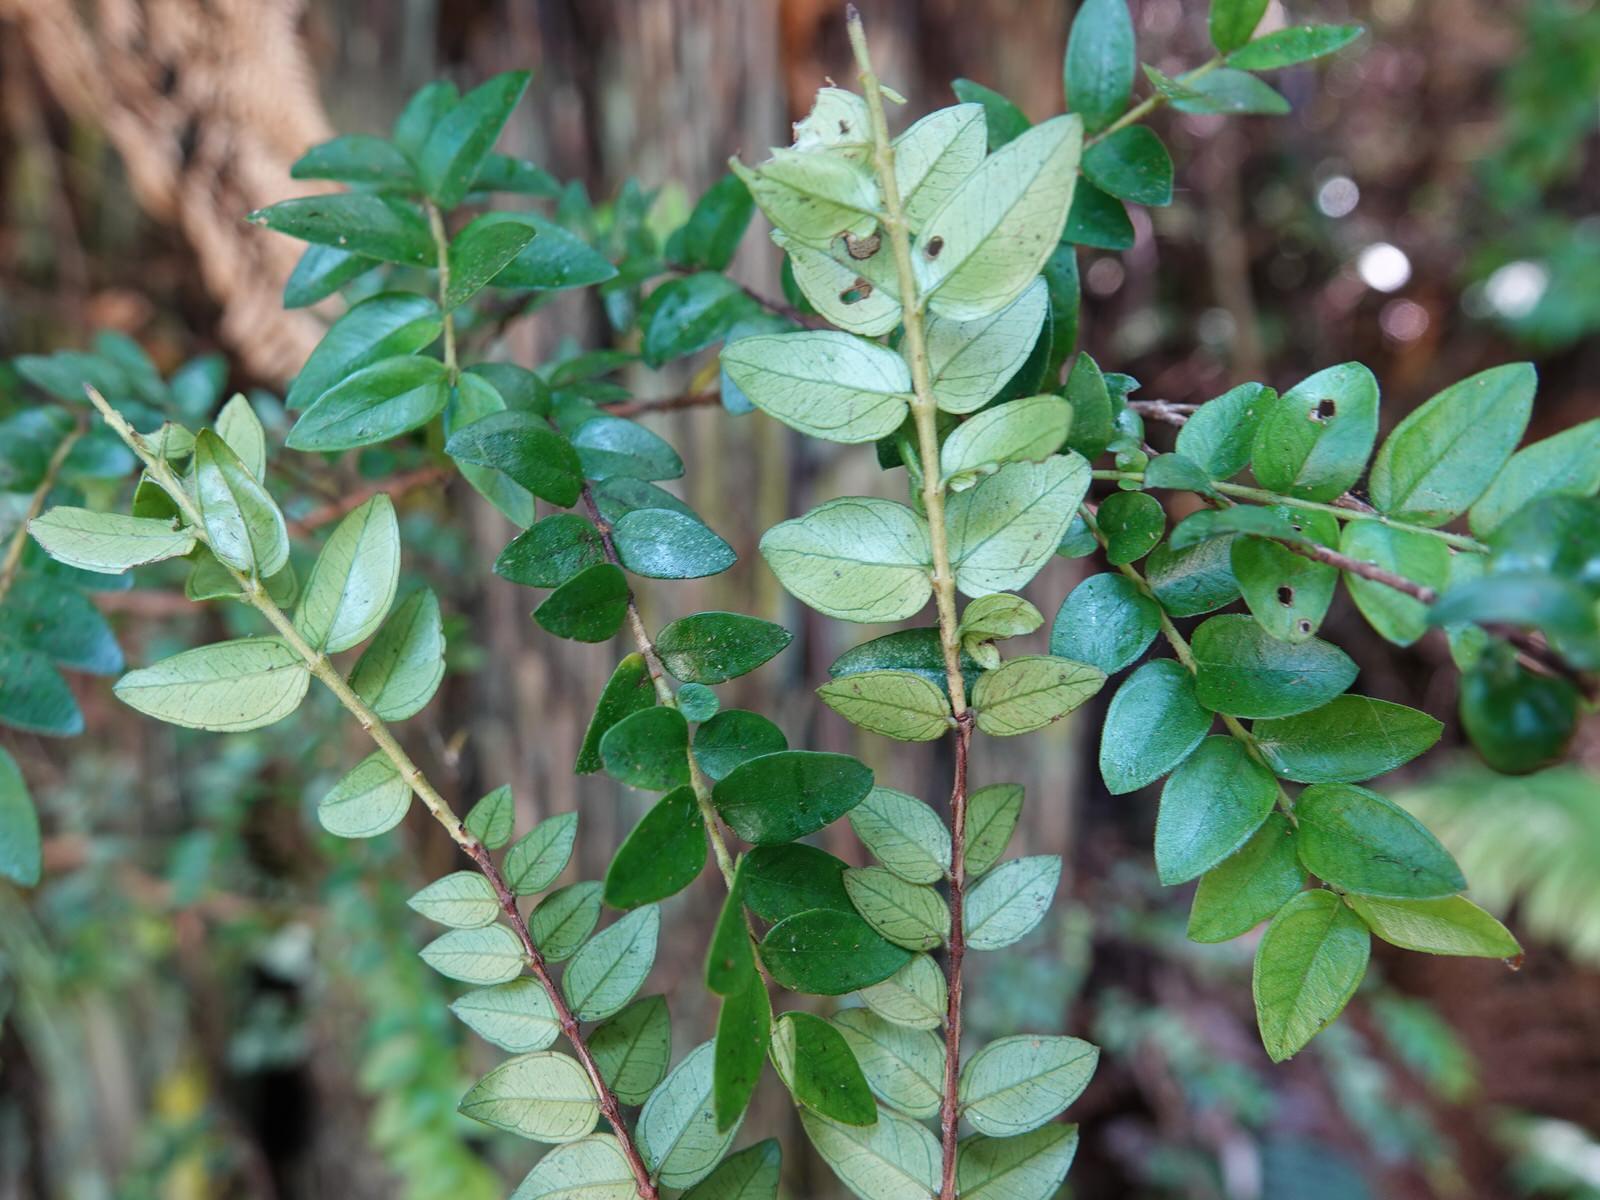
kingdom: Plantae
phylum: Tracheophyta
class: Magnoliopsida
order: Myrtales
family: Myrtaceae
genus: Metrosideros
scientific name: Metrosideros diffusa
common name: Small ratavine
